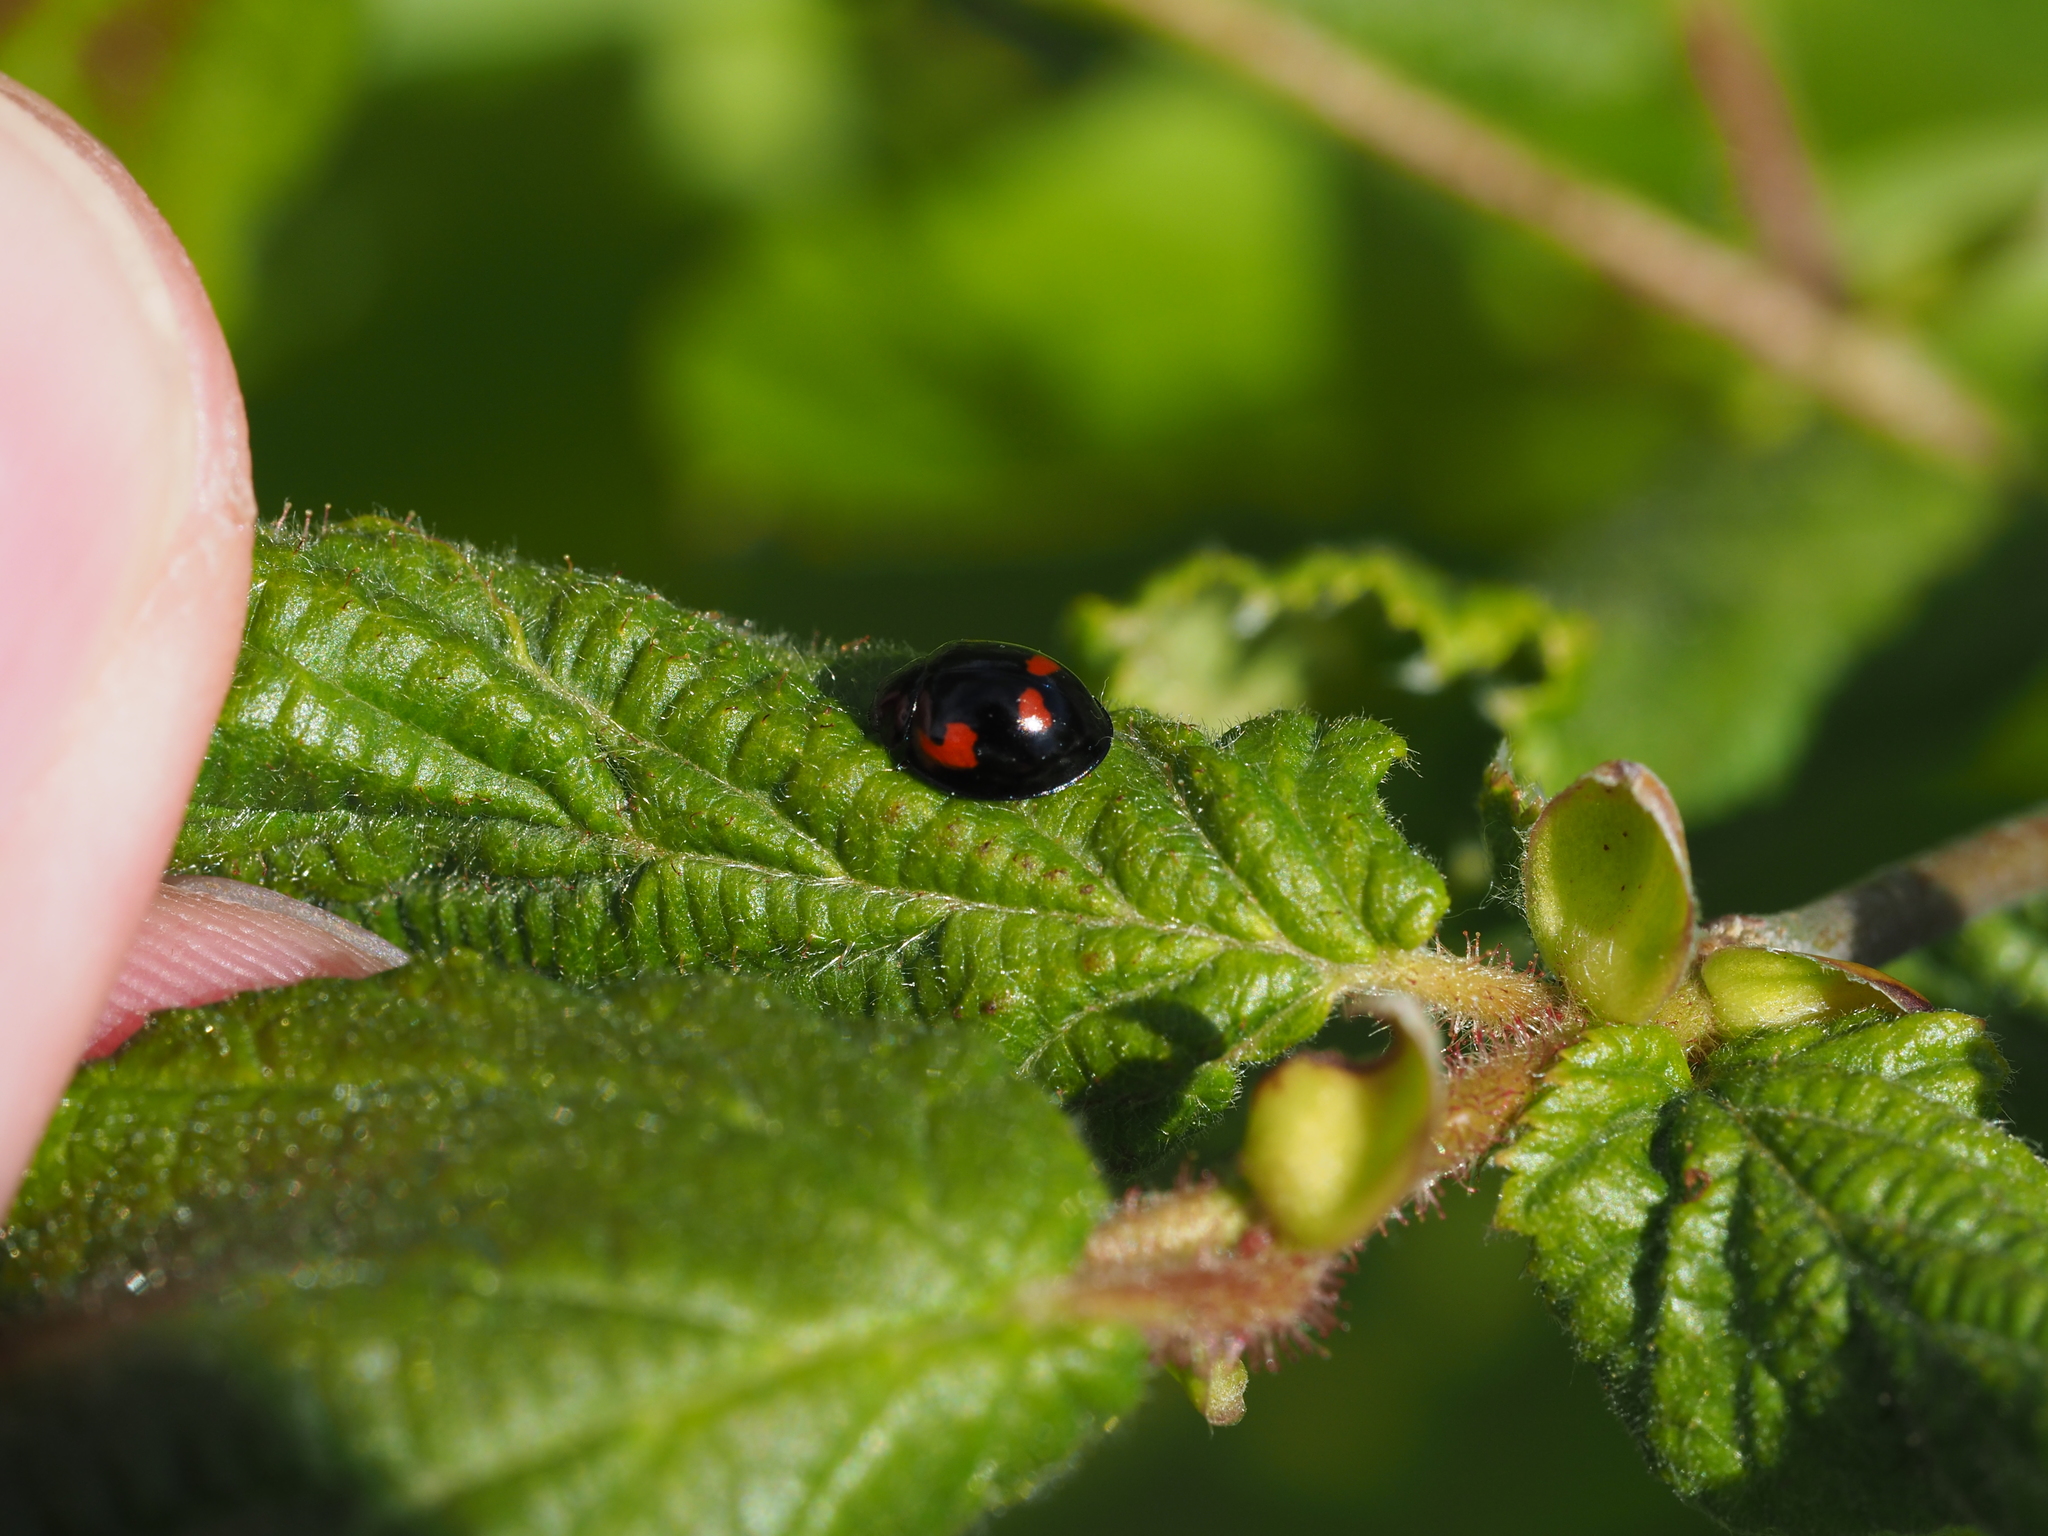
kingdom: Animalia
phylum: Arthropoda
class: Insecta
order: Coleoptera
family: Coccinellidae
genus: Brumus
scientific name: Brumus quadripustulatus
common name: Ladybird beetle
